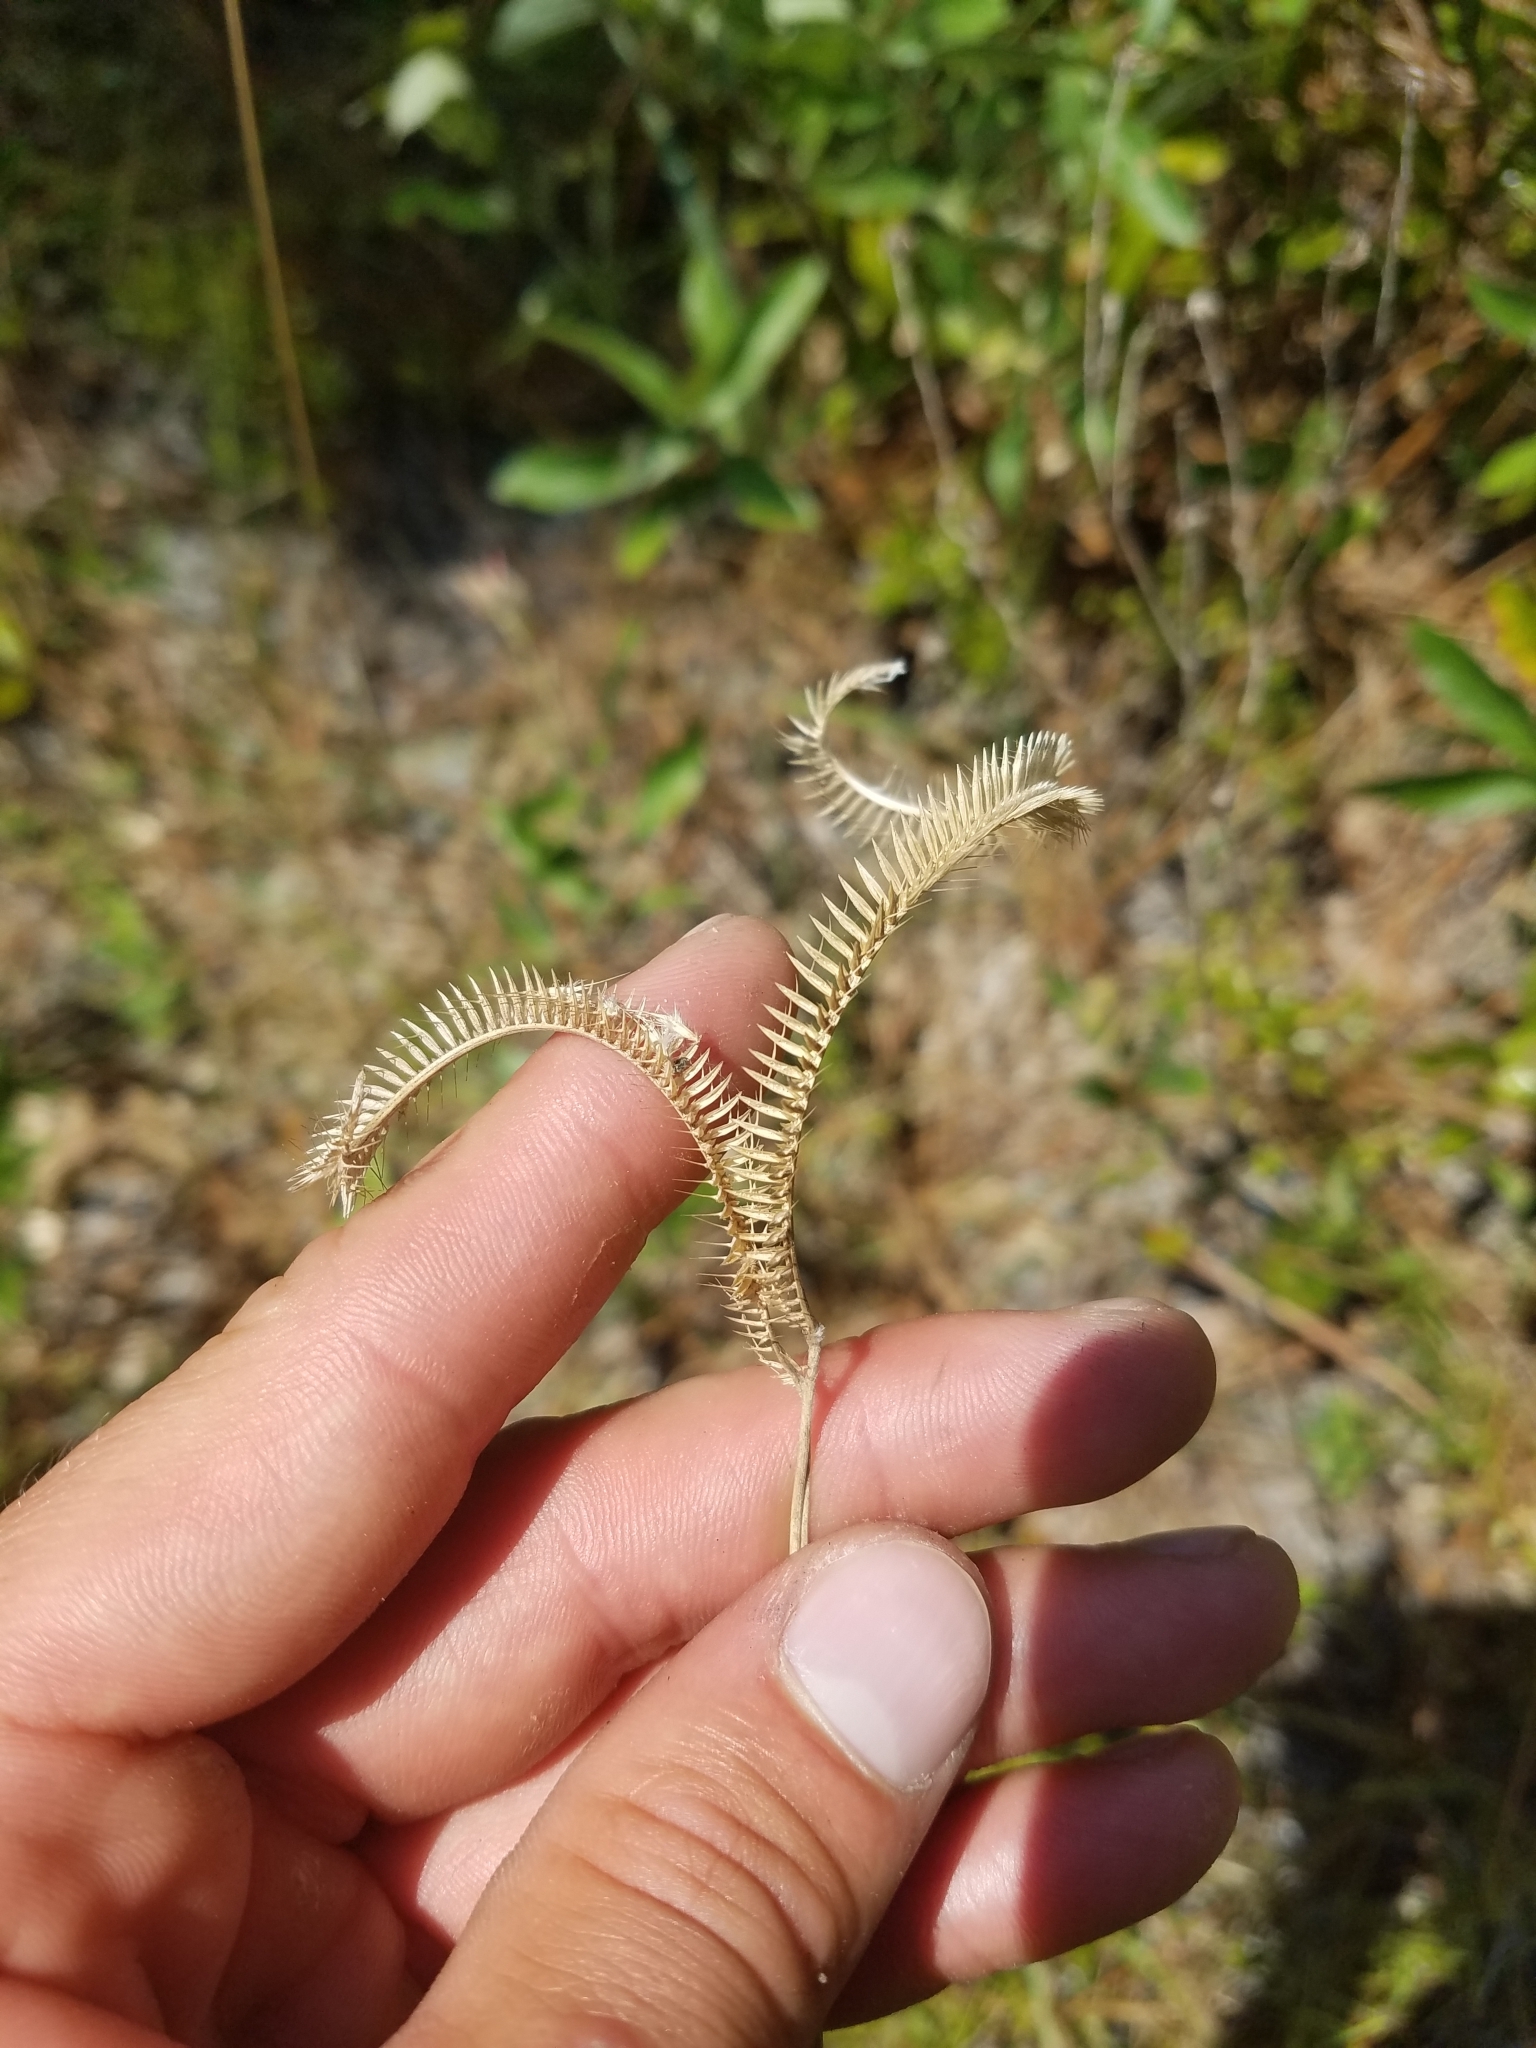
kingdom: Plantae
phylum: Tracheophyta
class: Liliopsida
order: Poales
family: Poaceae
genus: Ctenium
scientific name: Ctenium floridanum
